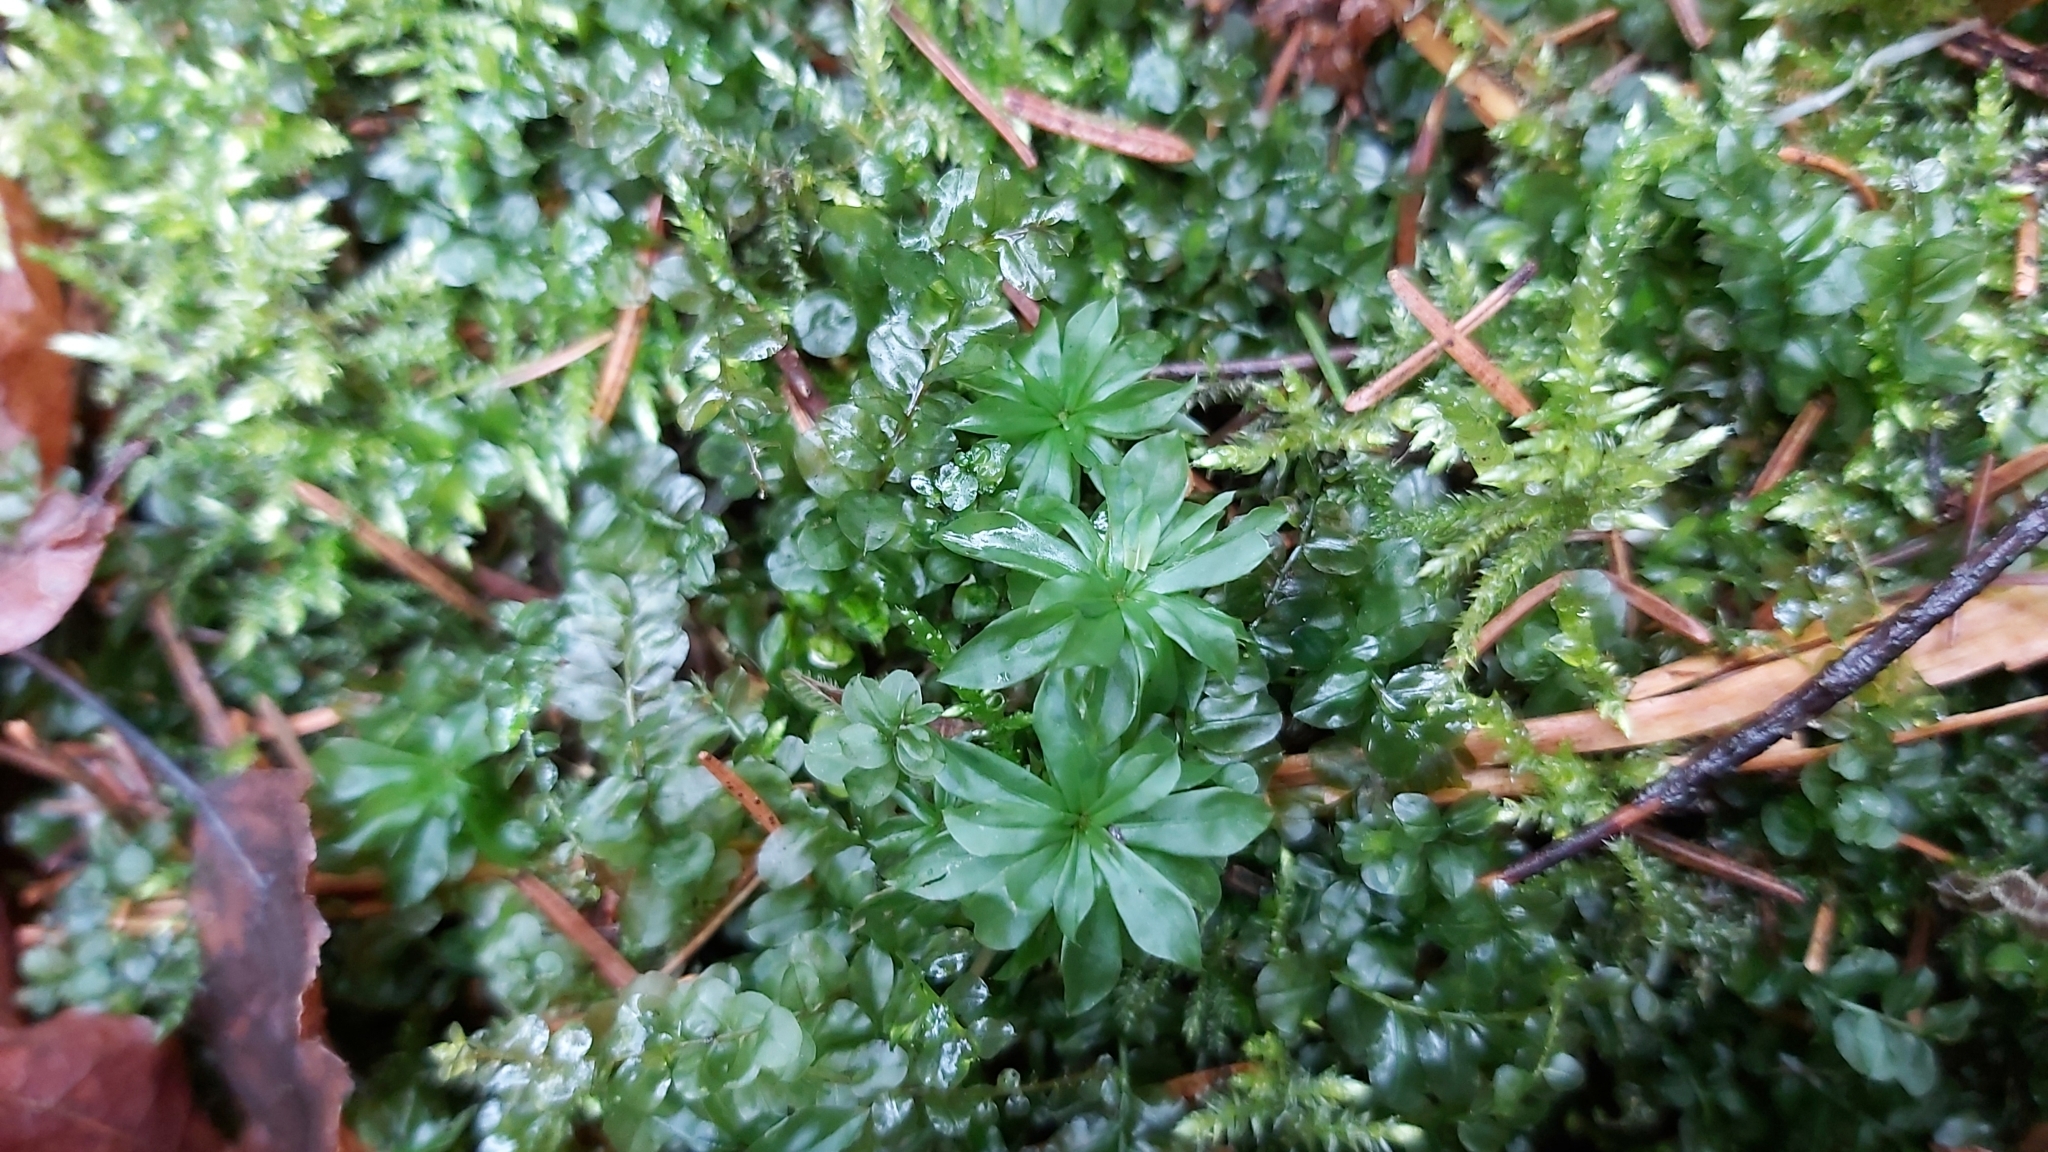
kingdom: Plantae
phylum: Bryophyta
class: Bryopsida
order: Bryales
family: Bryaceae
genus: Rhodobryum
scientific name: Rhodobryum roseum
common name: Rose-moss
